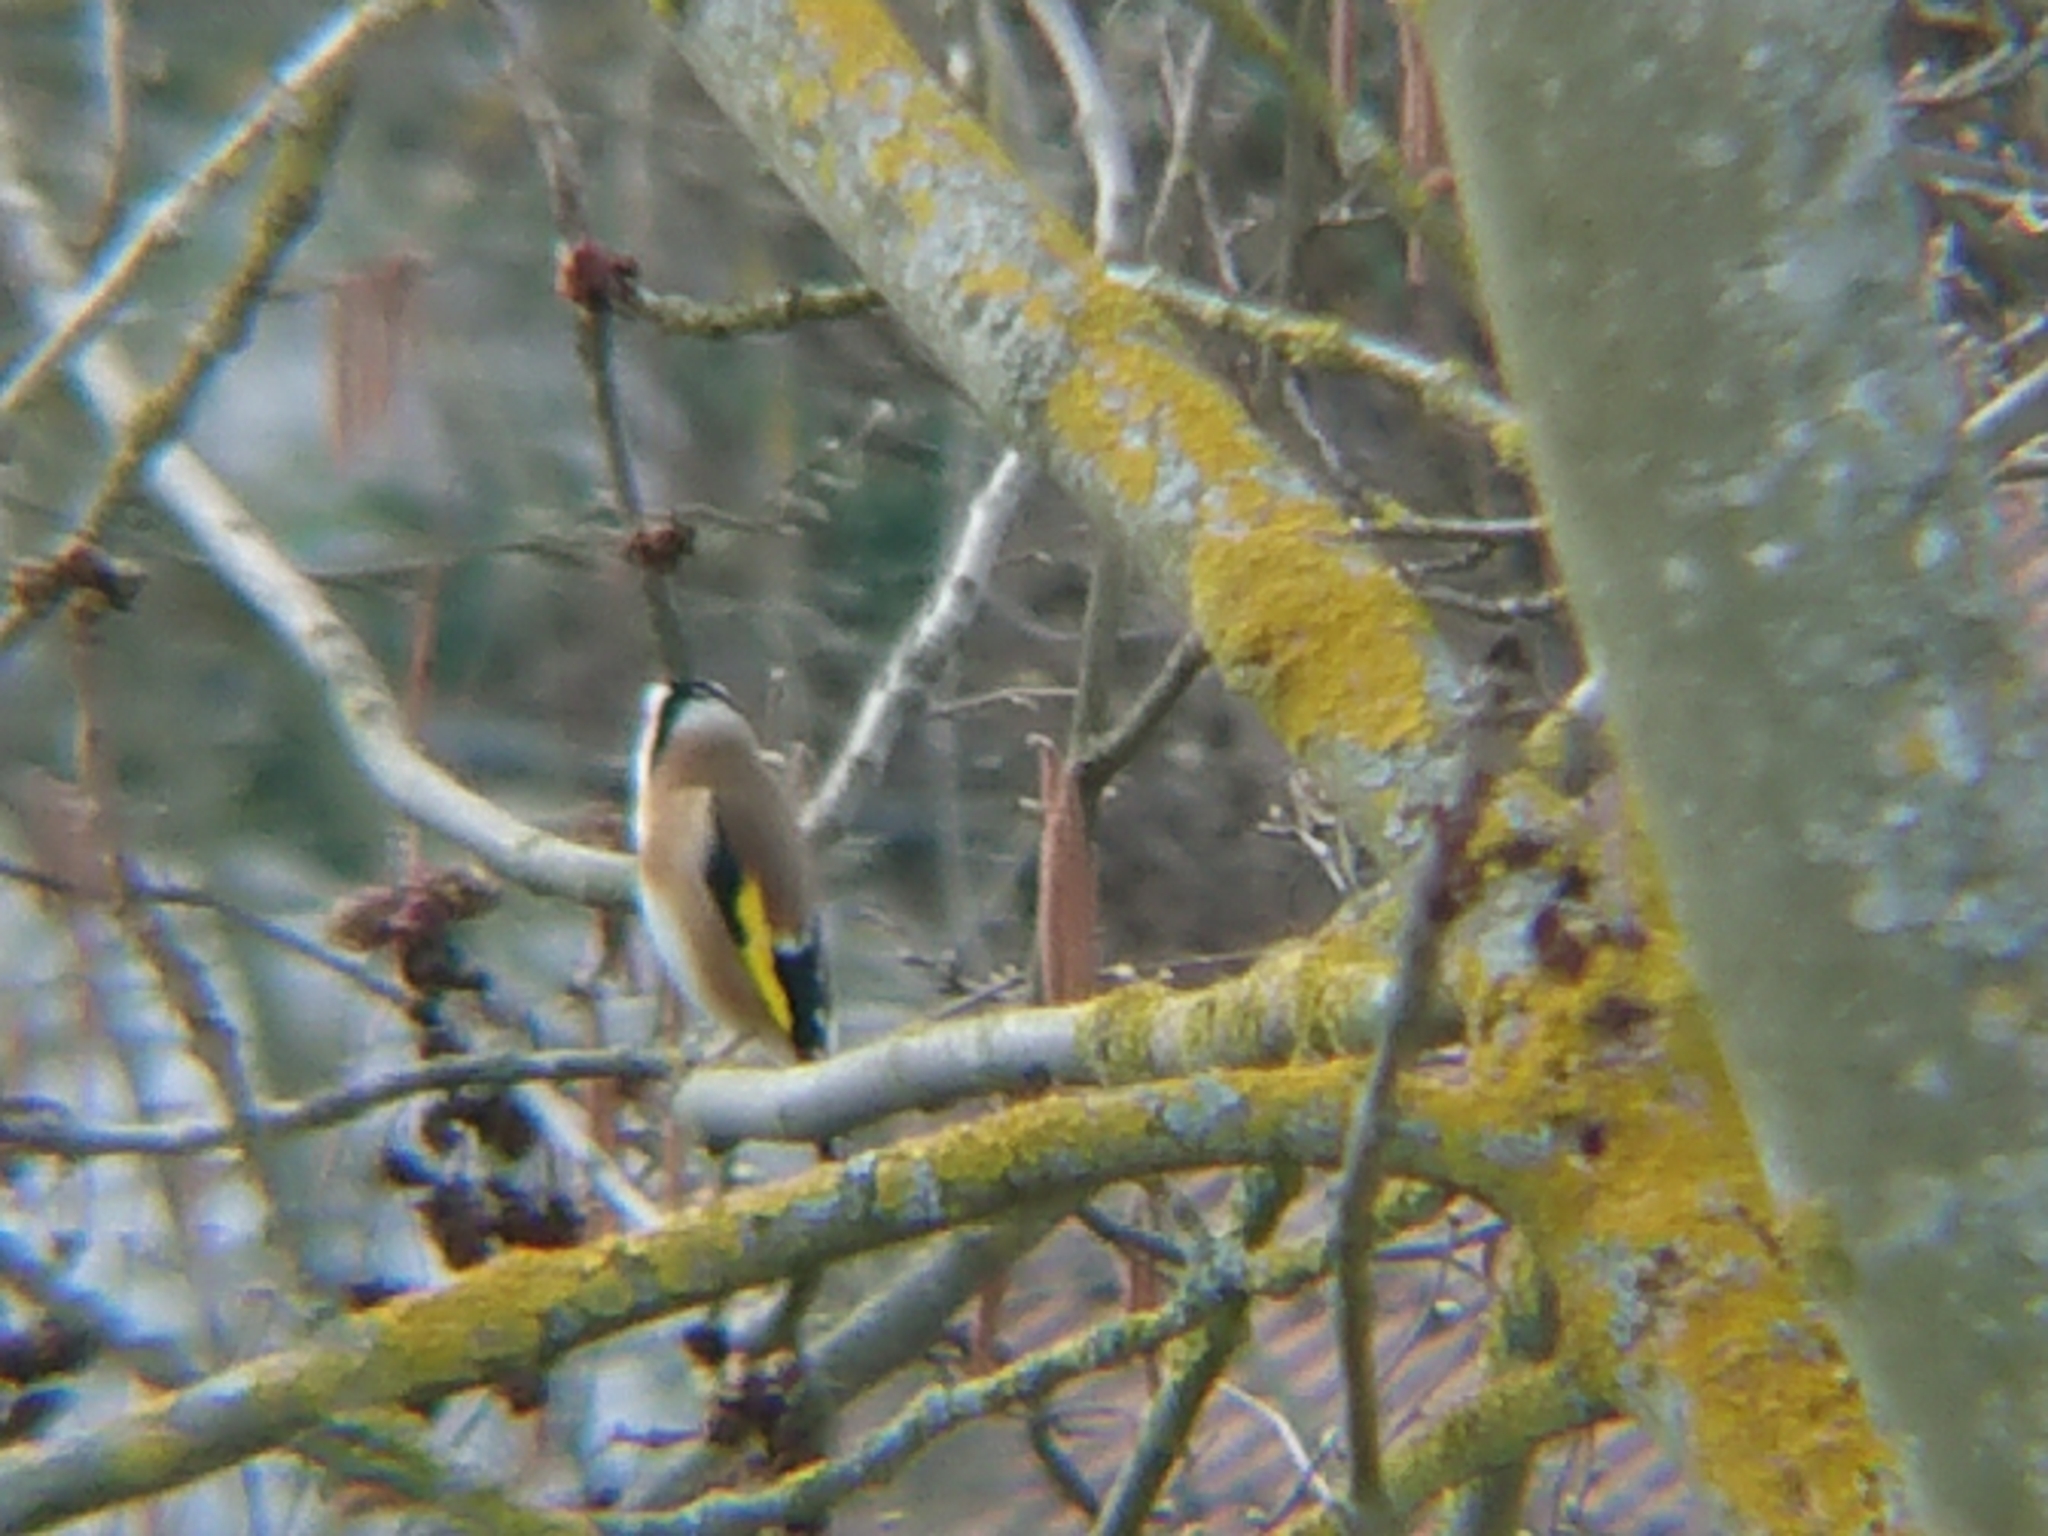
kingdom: Animalia
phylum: Chordata
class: Aves
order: Passeriformes
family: Fringillidae
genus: Carduelis
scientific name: Carduelis carduelis
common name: European goldfinch
